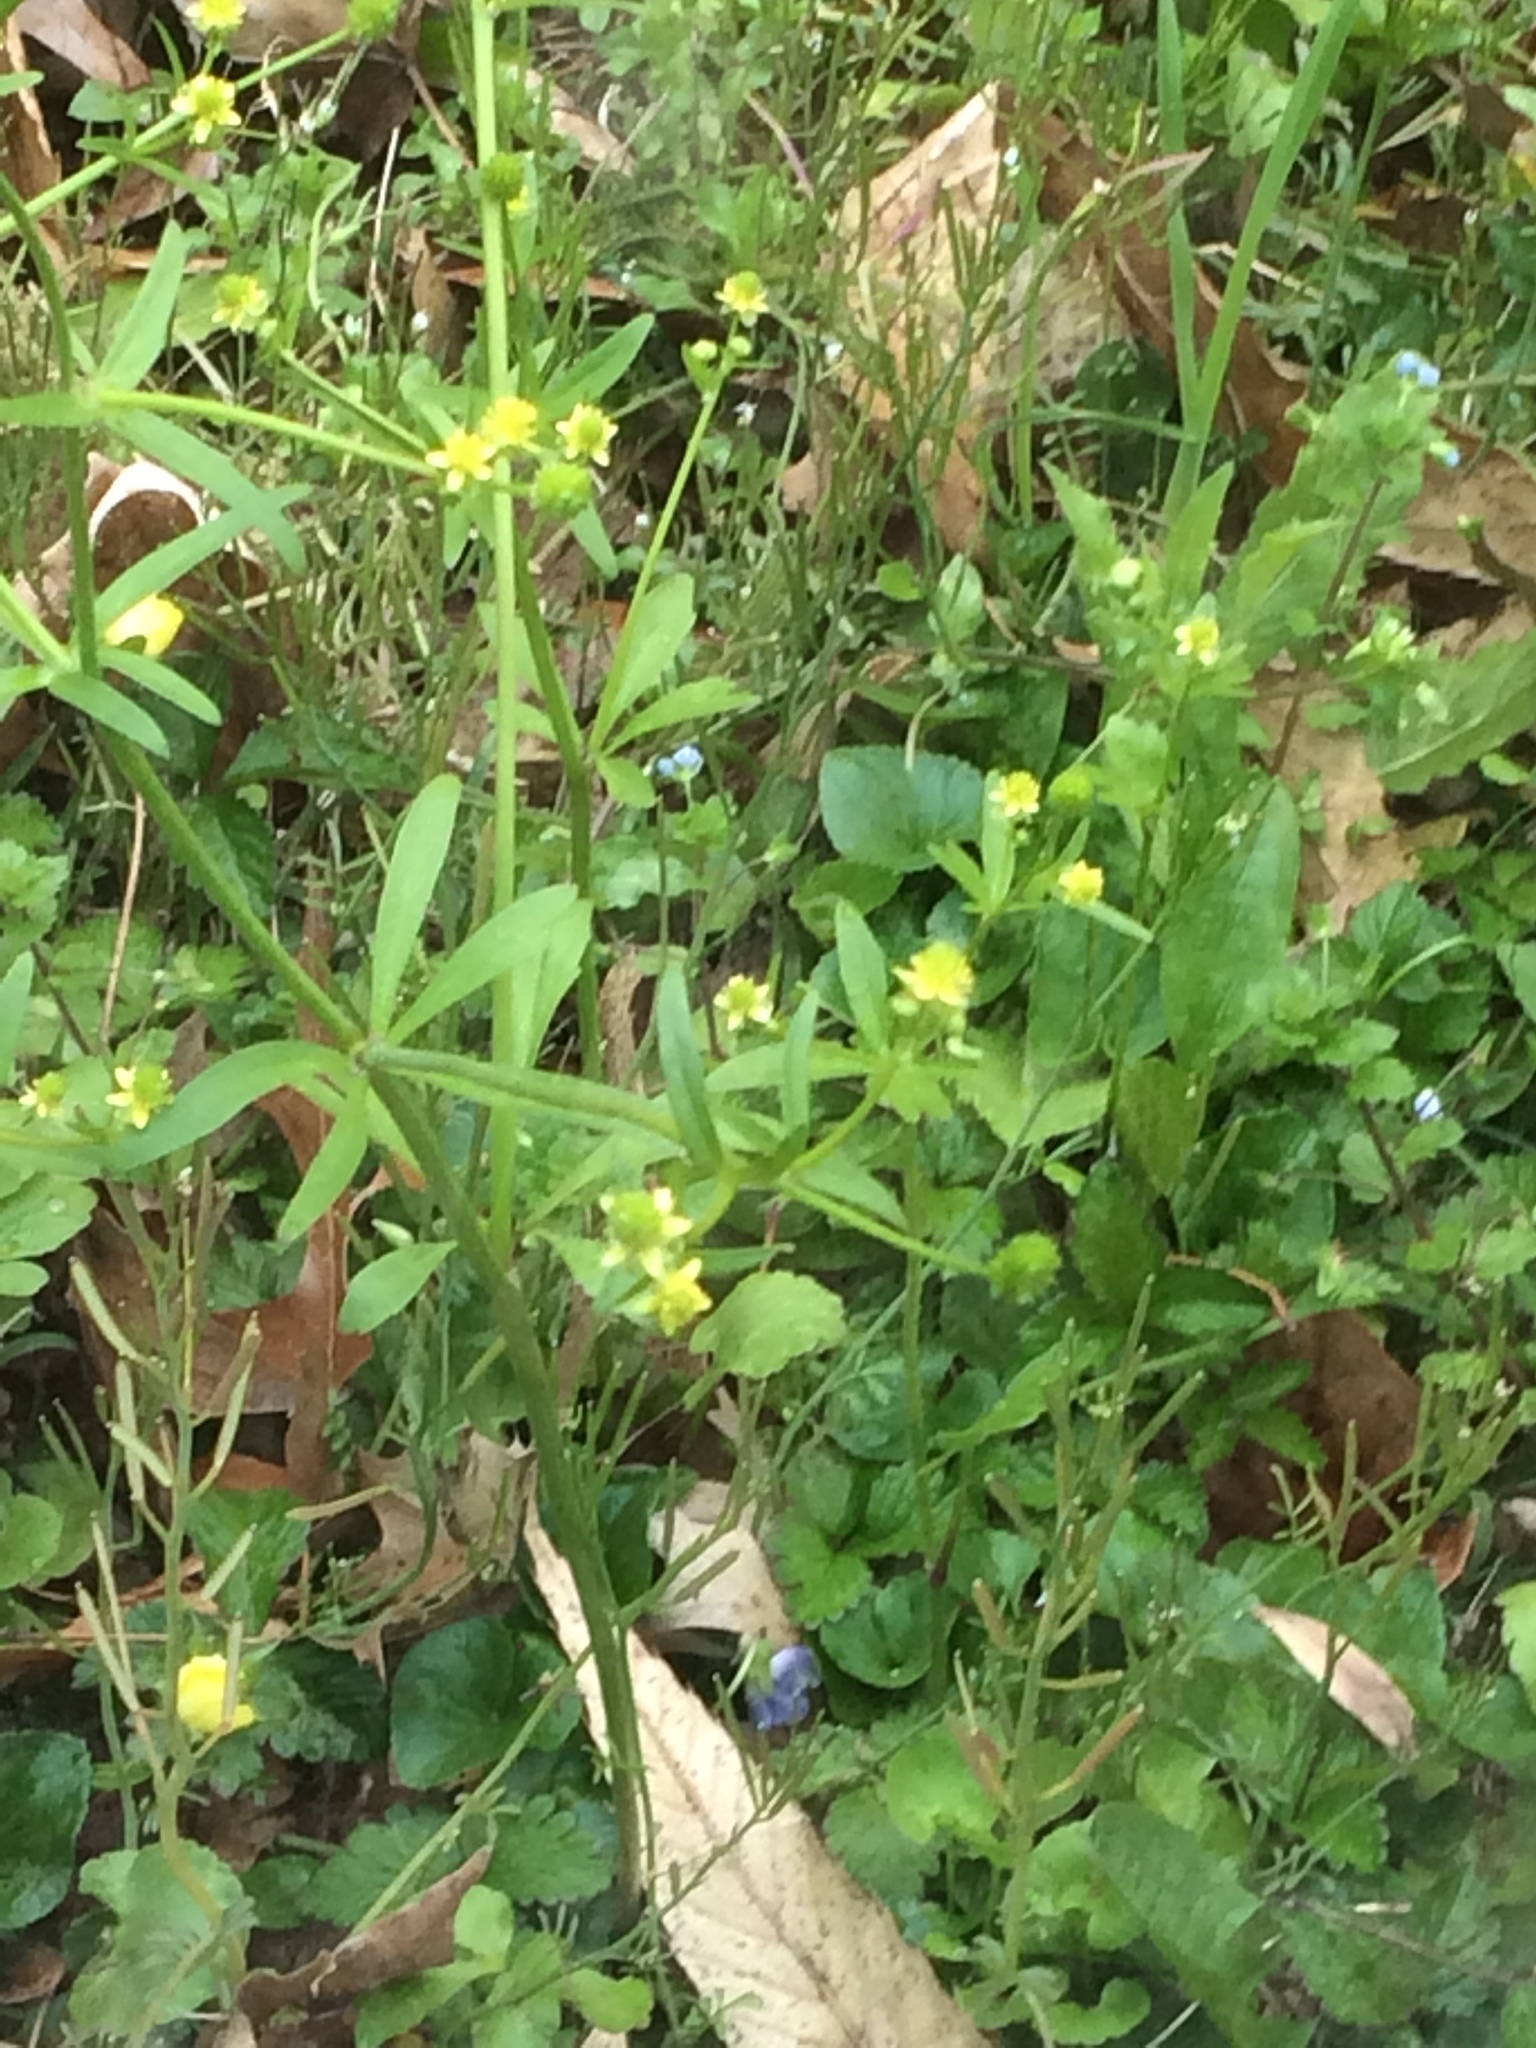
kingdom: Plantae
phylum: Tracheophyta
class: Magnoliopsida
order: Ranunculales
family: Ranunculaceae
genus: Ranunculus
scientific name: Ranunculus abortivus
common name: Early wood buttercup
